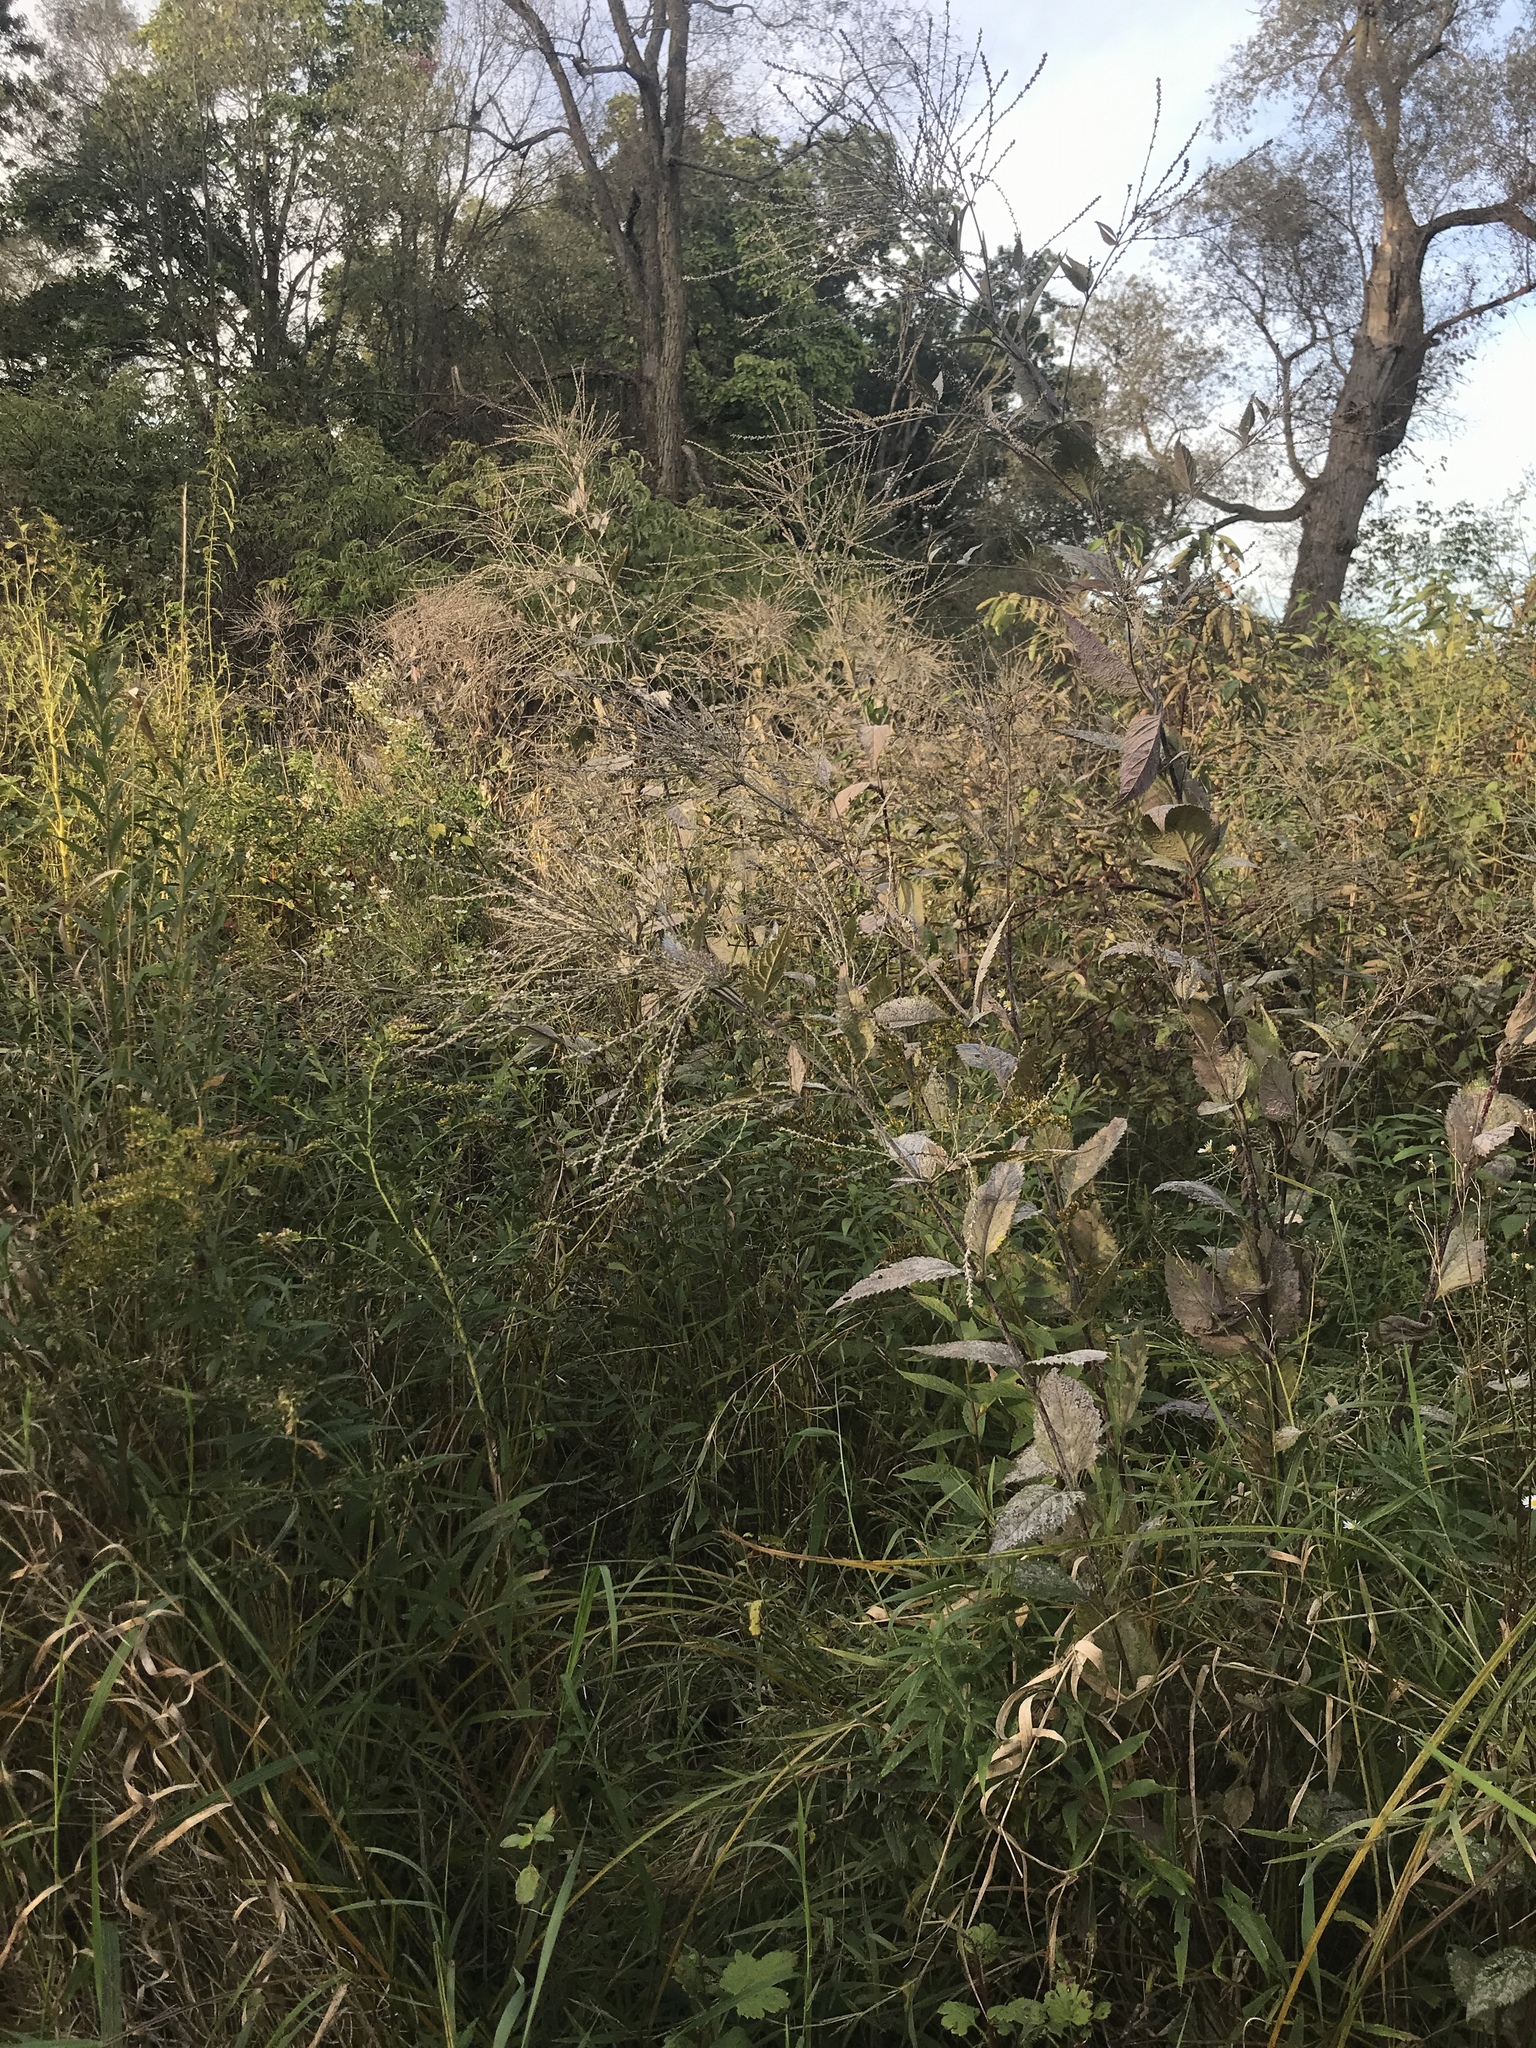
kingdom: Plantae
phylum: Tracheophyta
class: Magnoliopsida
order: Lamiales
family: Verbenaceae
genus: Verbena
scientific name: Verbena urticifolia
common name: Nettle-leaved vervain
